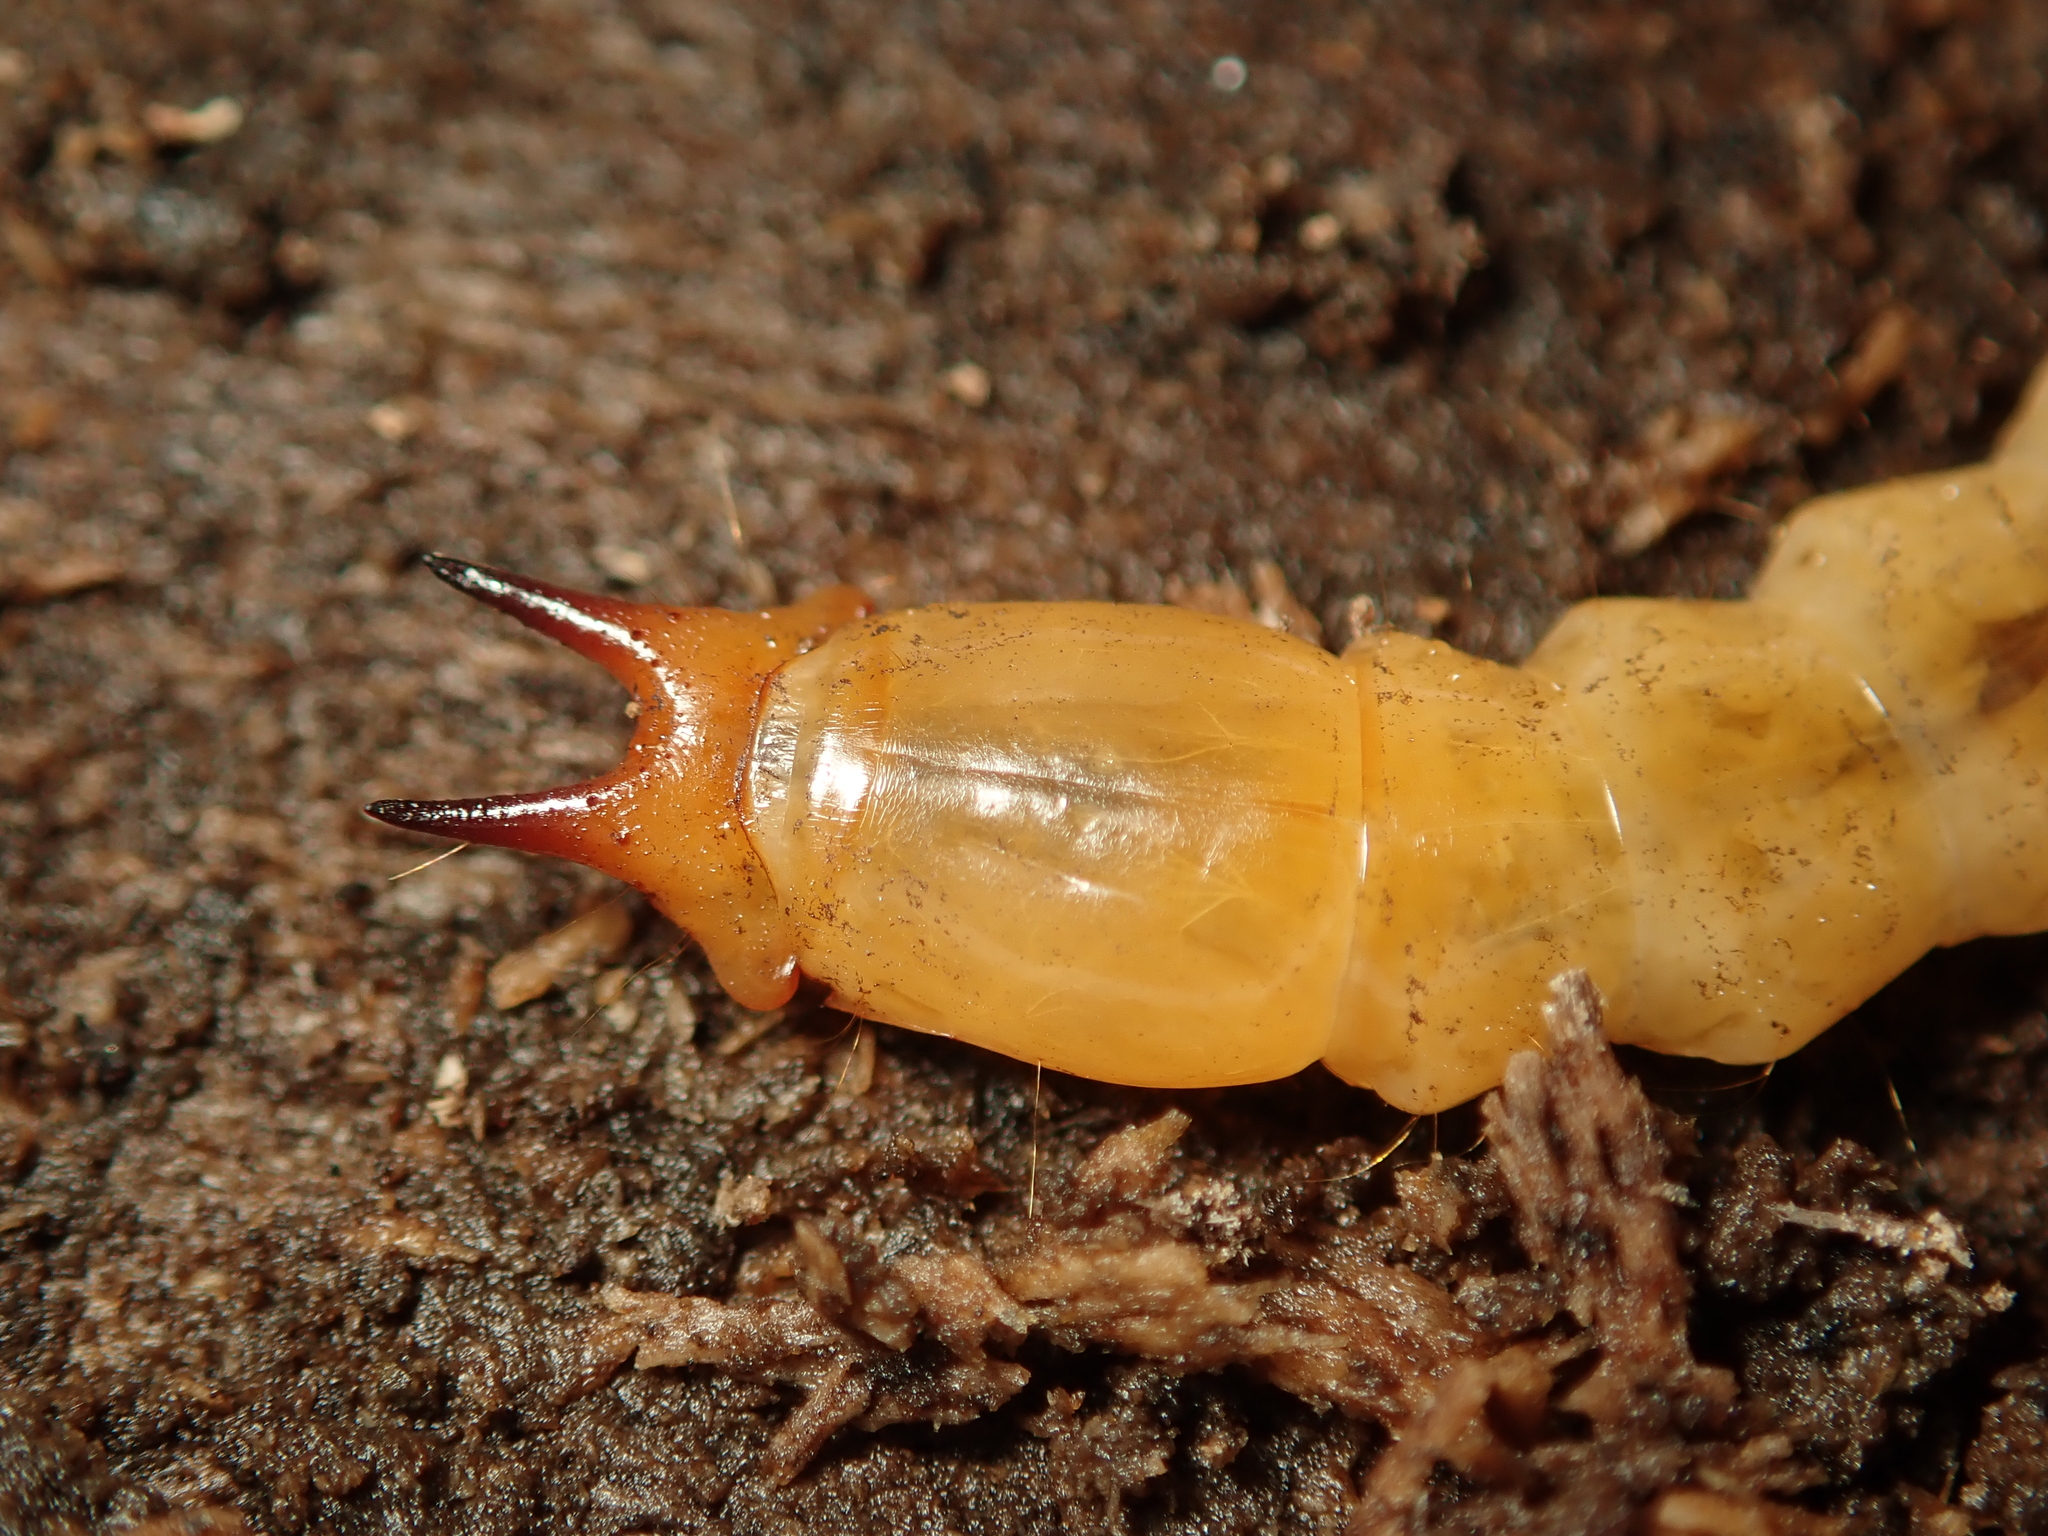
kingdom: Animalia
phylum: Arthropoda
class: Insecta
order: Coleoptera
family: Pyrochroidae
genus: Pyrochroa
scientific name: Pyrochroa coccinea
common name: Black-headed cardinal beetle
